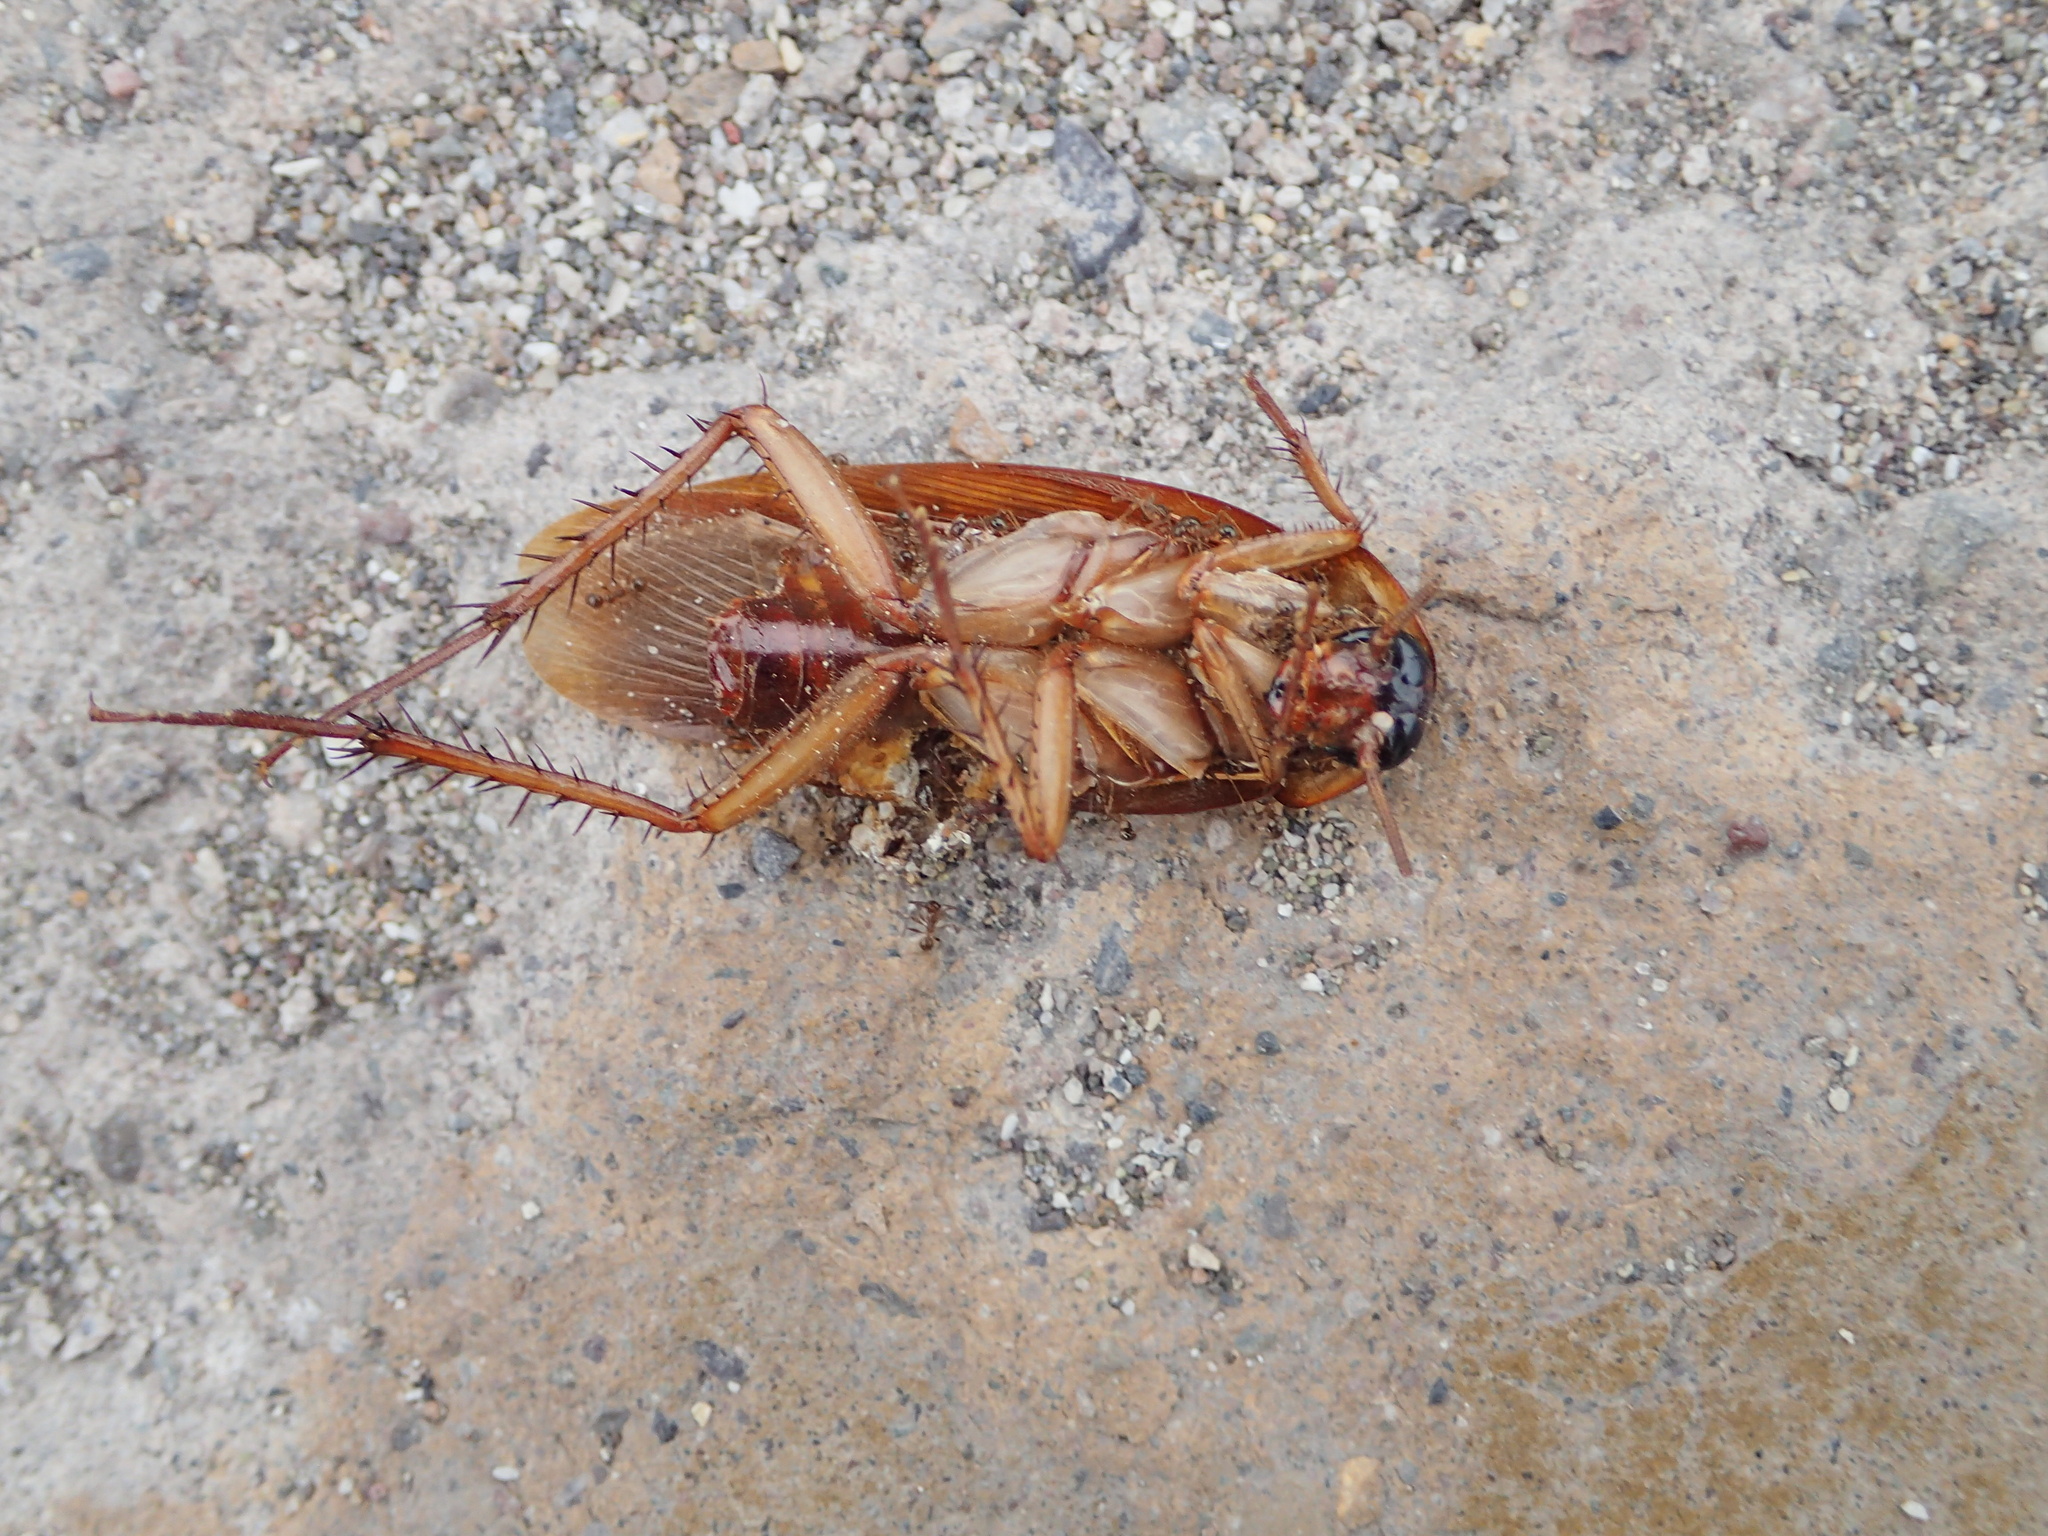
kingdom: Animalia
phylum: Arthropoda
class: Insecta
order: Blattodea
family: Blattidae
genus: Periplaneta
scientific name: Periplaneta americana
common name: American cockroach
